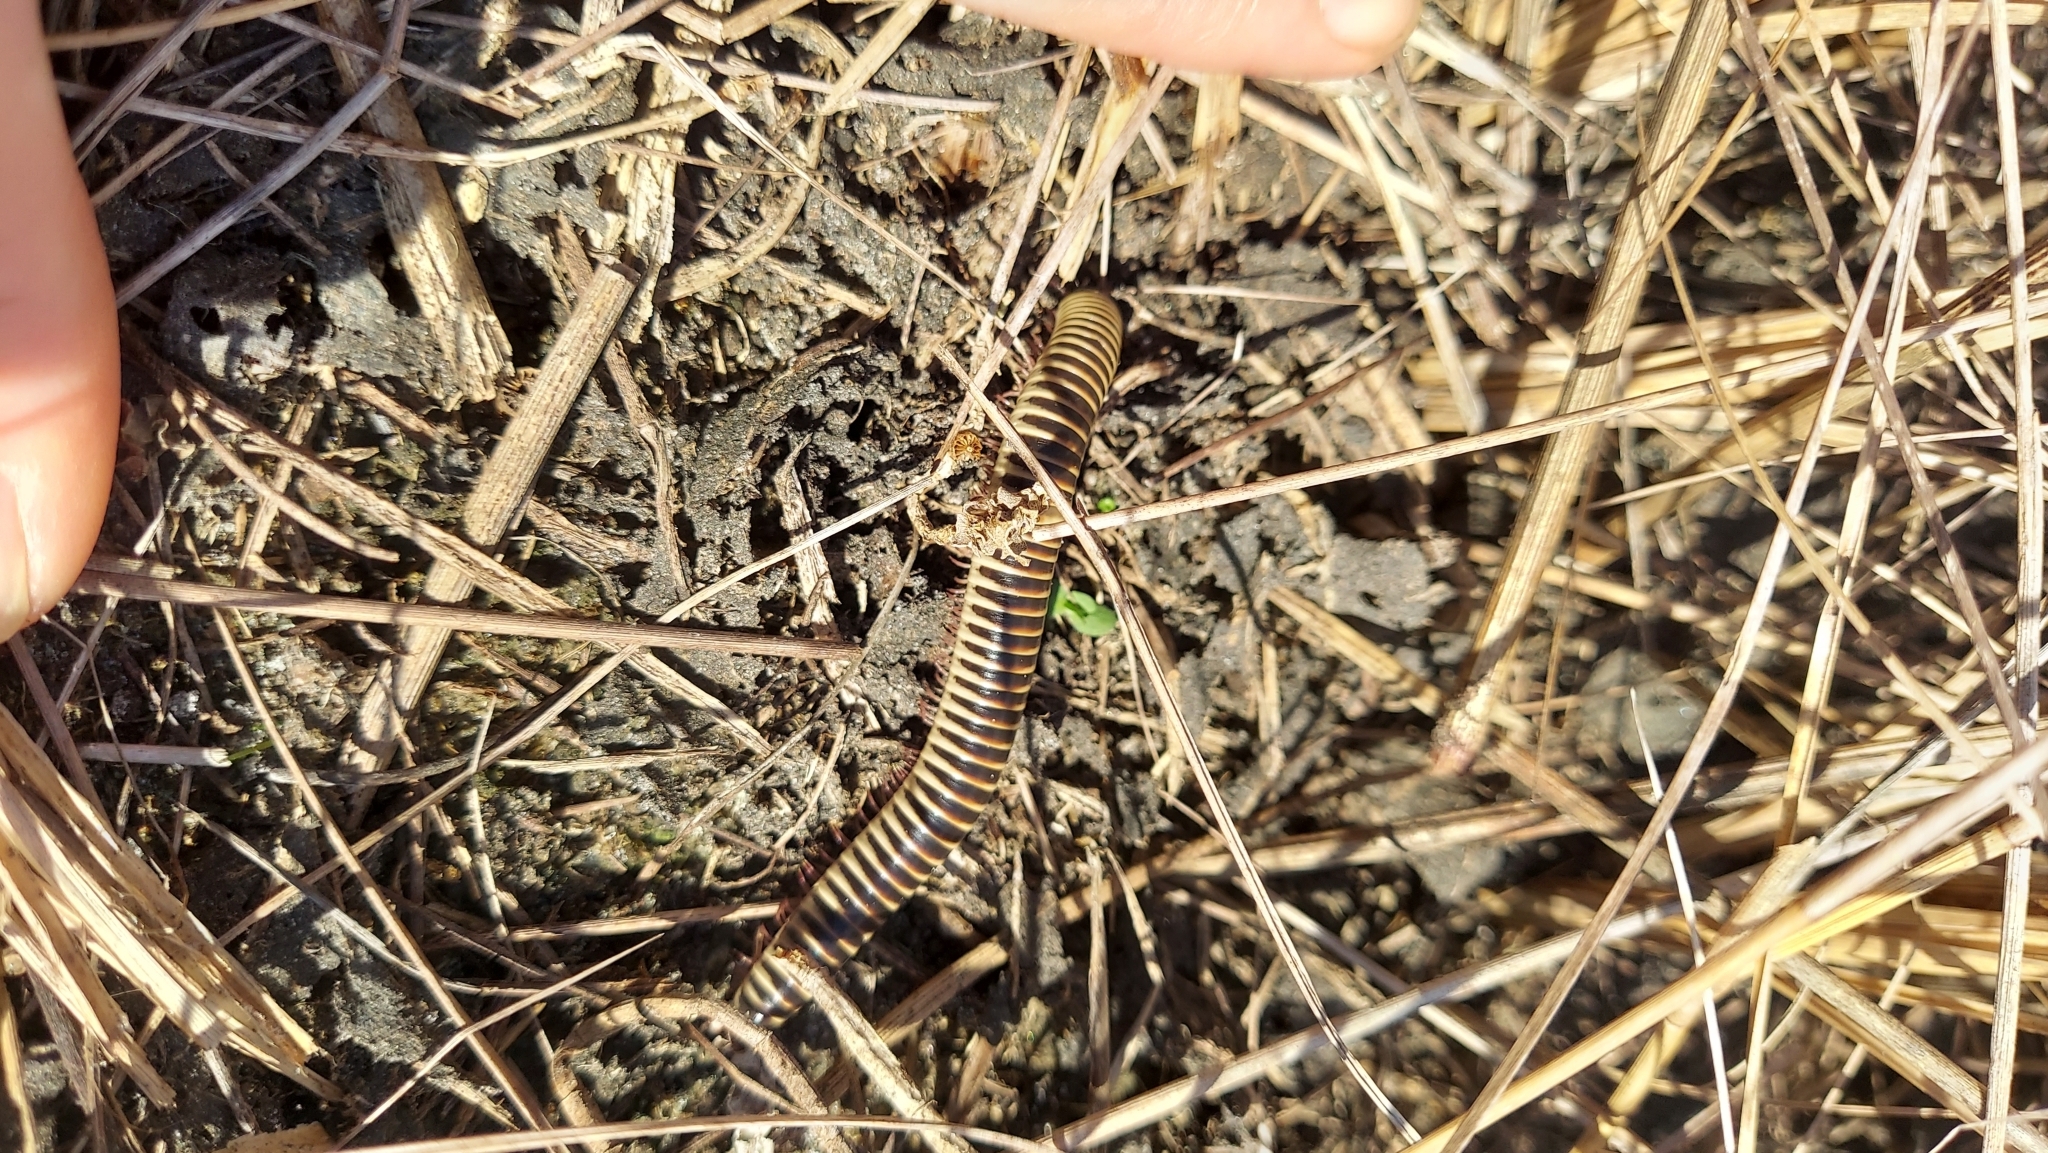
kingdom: Animalia
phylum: Arthropoda
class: Diplopoda
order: Spirobolida
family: Spirobolidae
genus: Chicobolus
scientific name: Chicobolus spinigerus
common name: Florida ivory millipede
